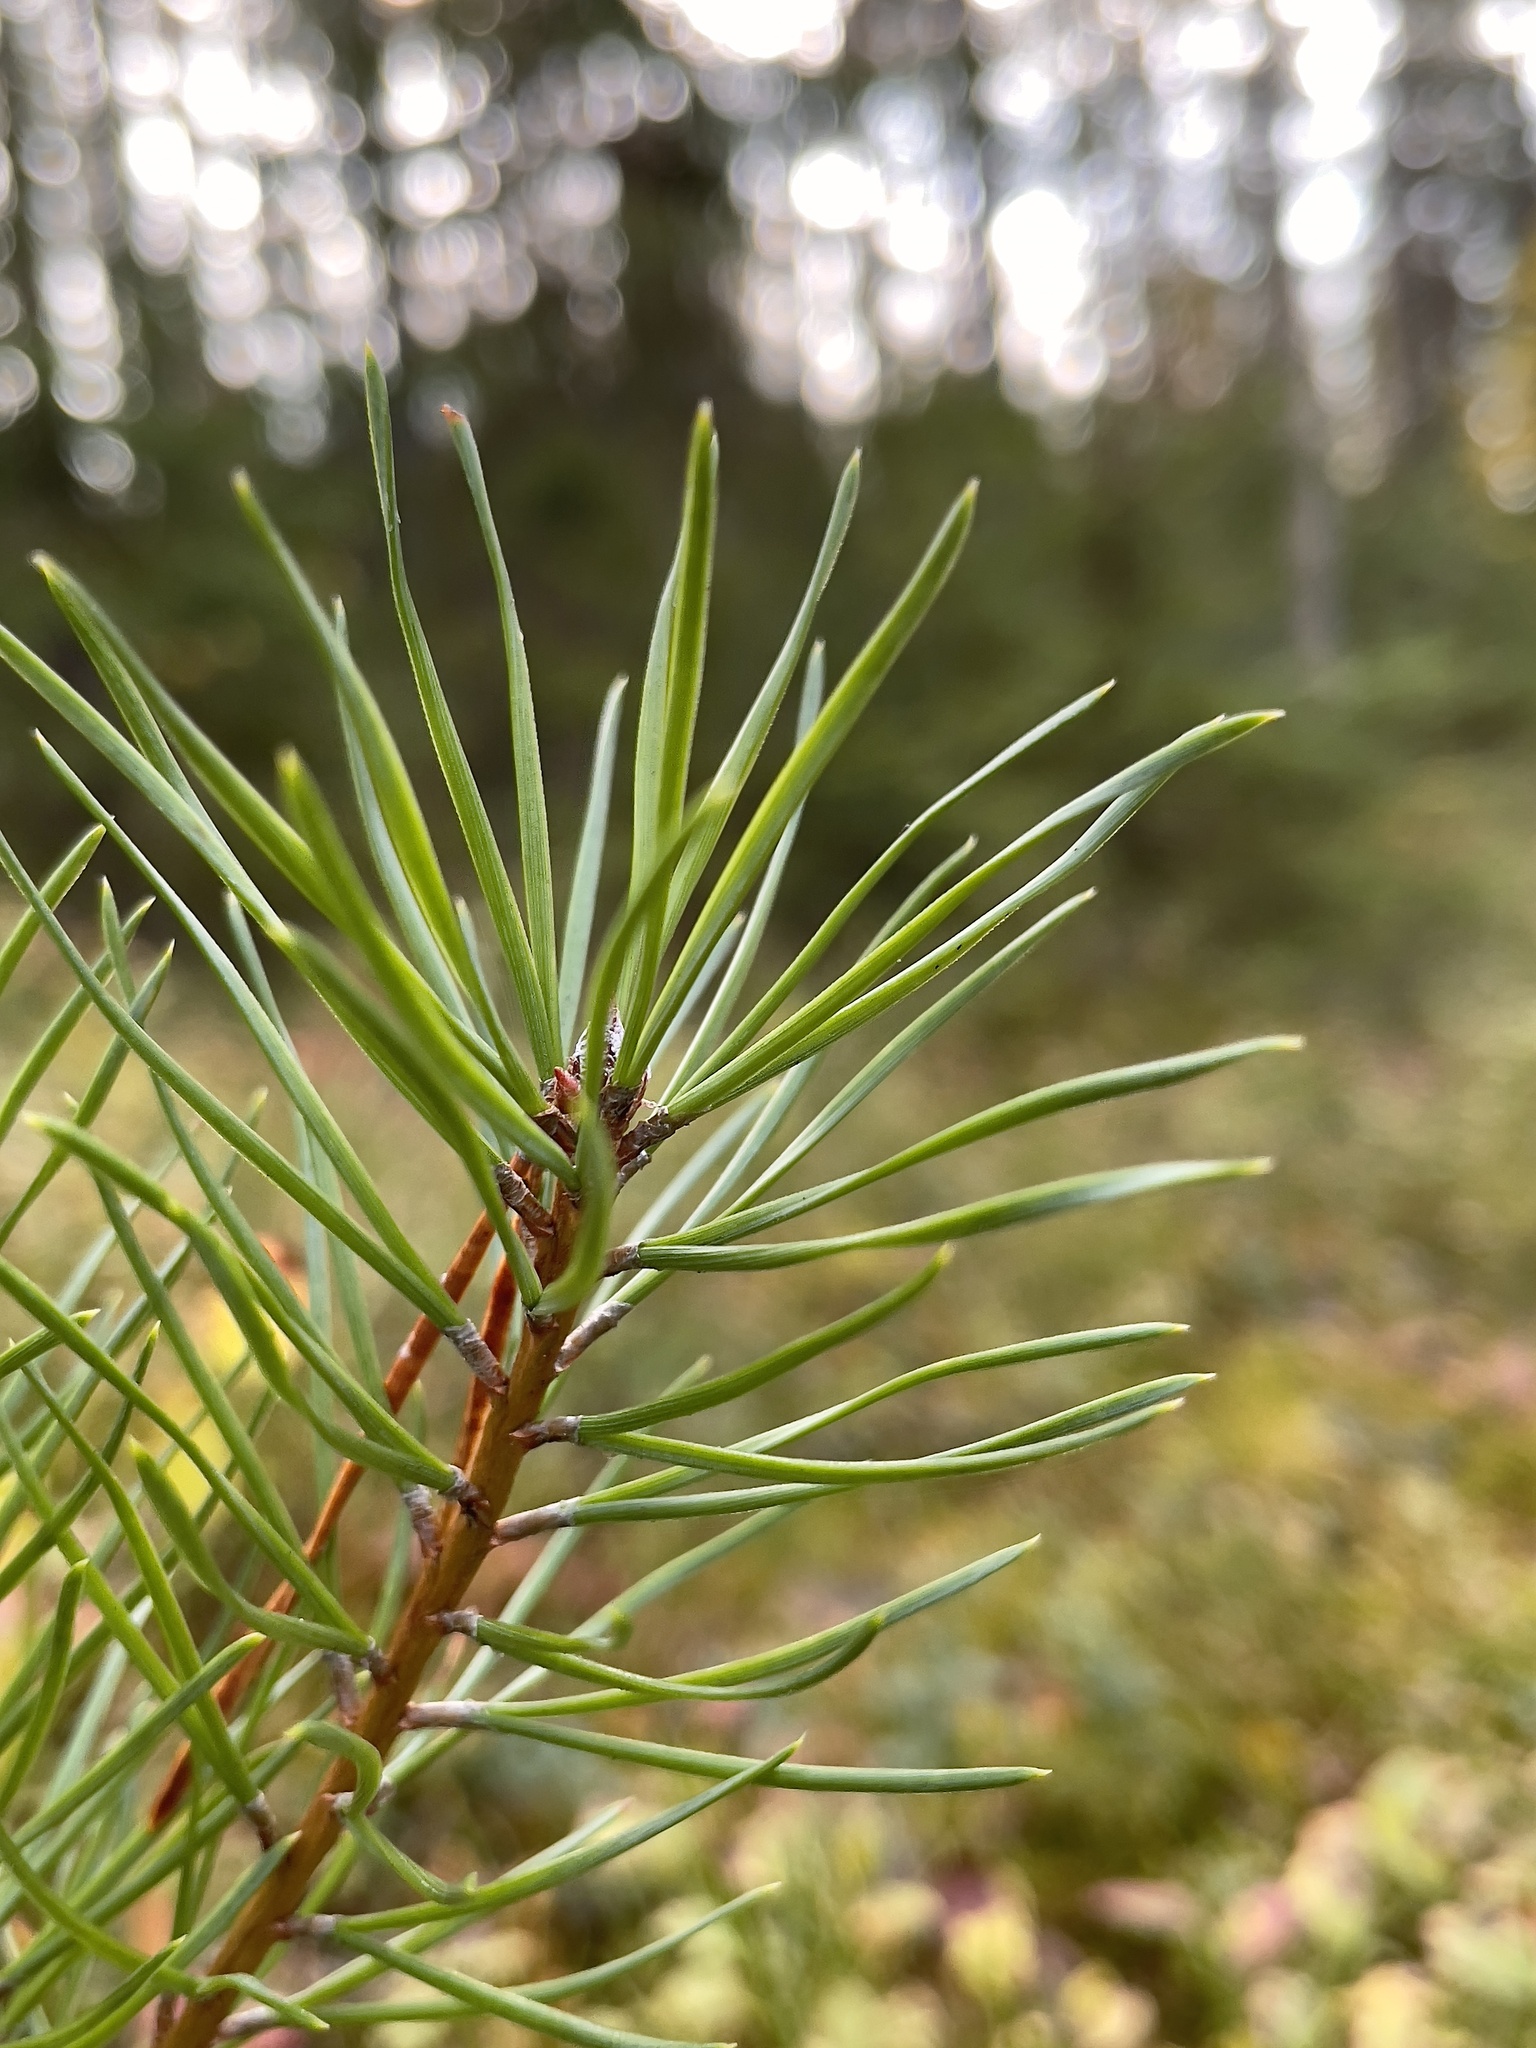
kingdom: Plantae
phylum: Tracheophyta
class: Pinopsida
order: Pinales
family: Pinaceae
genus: Pinus
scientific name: Pinus sylvestris
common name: Scots pine
